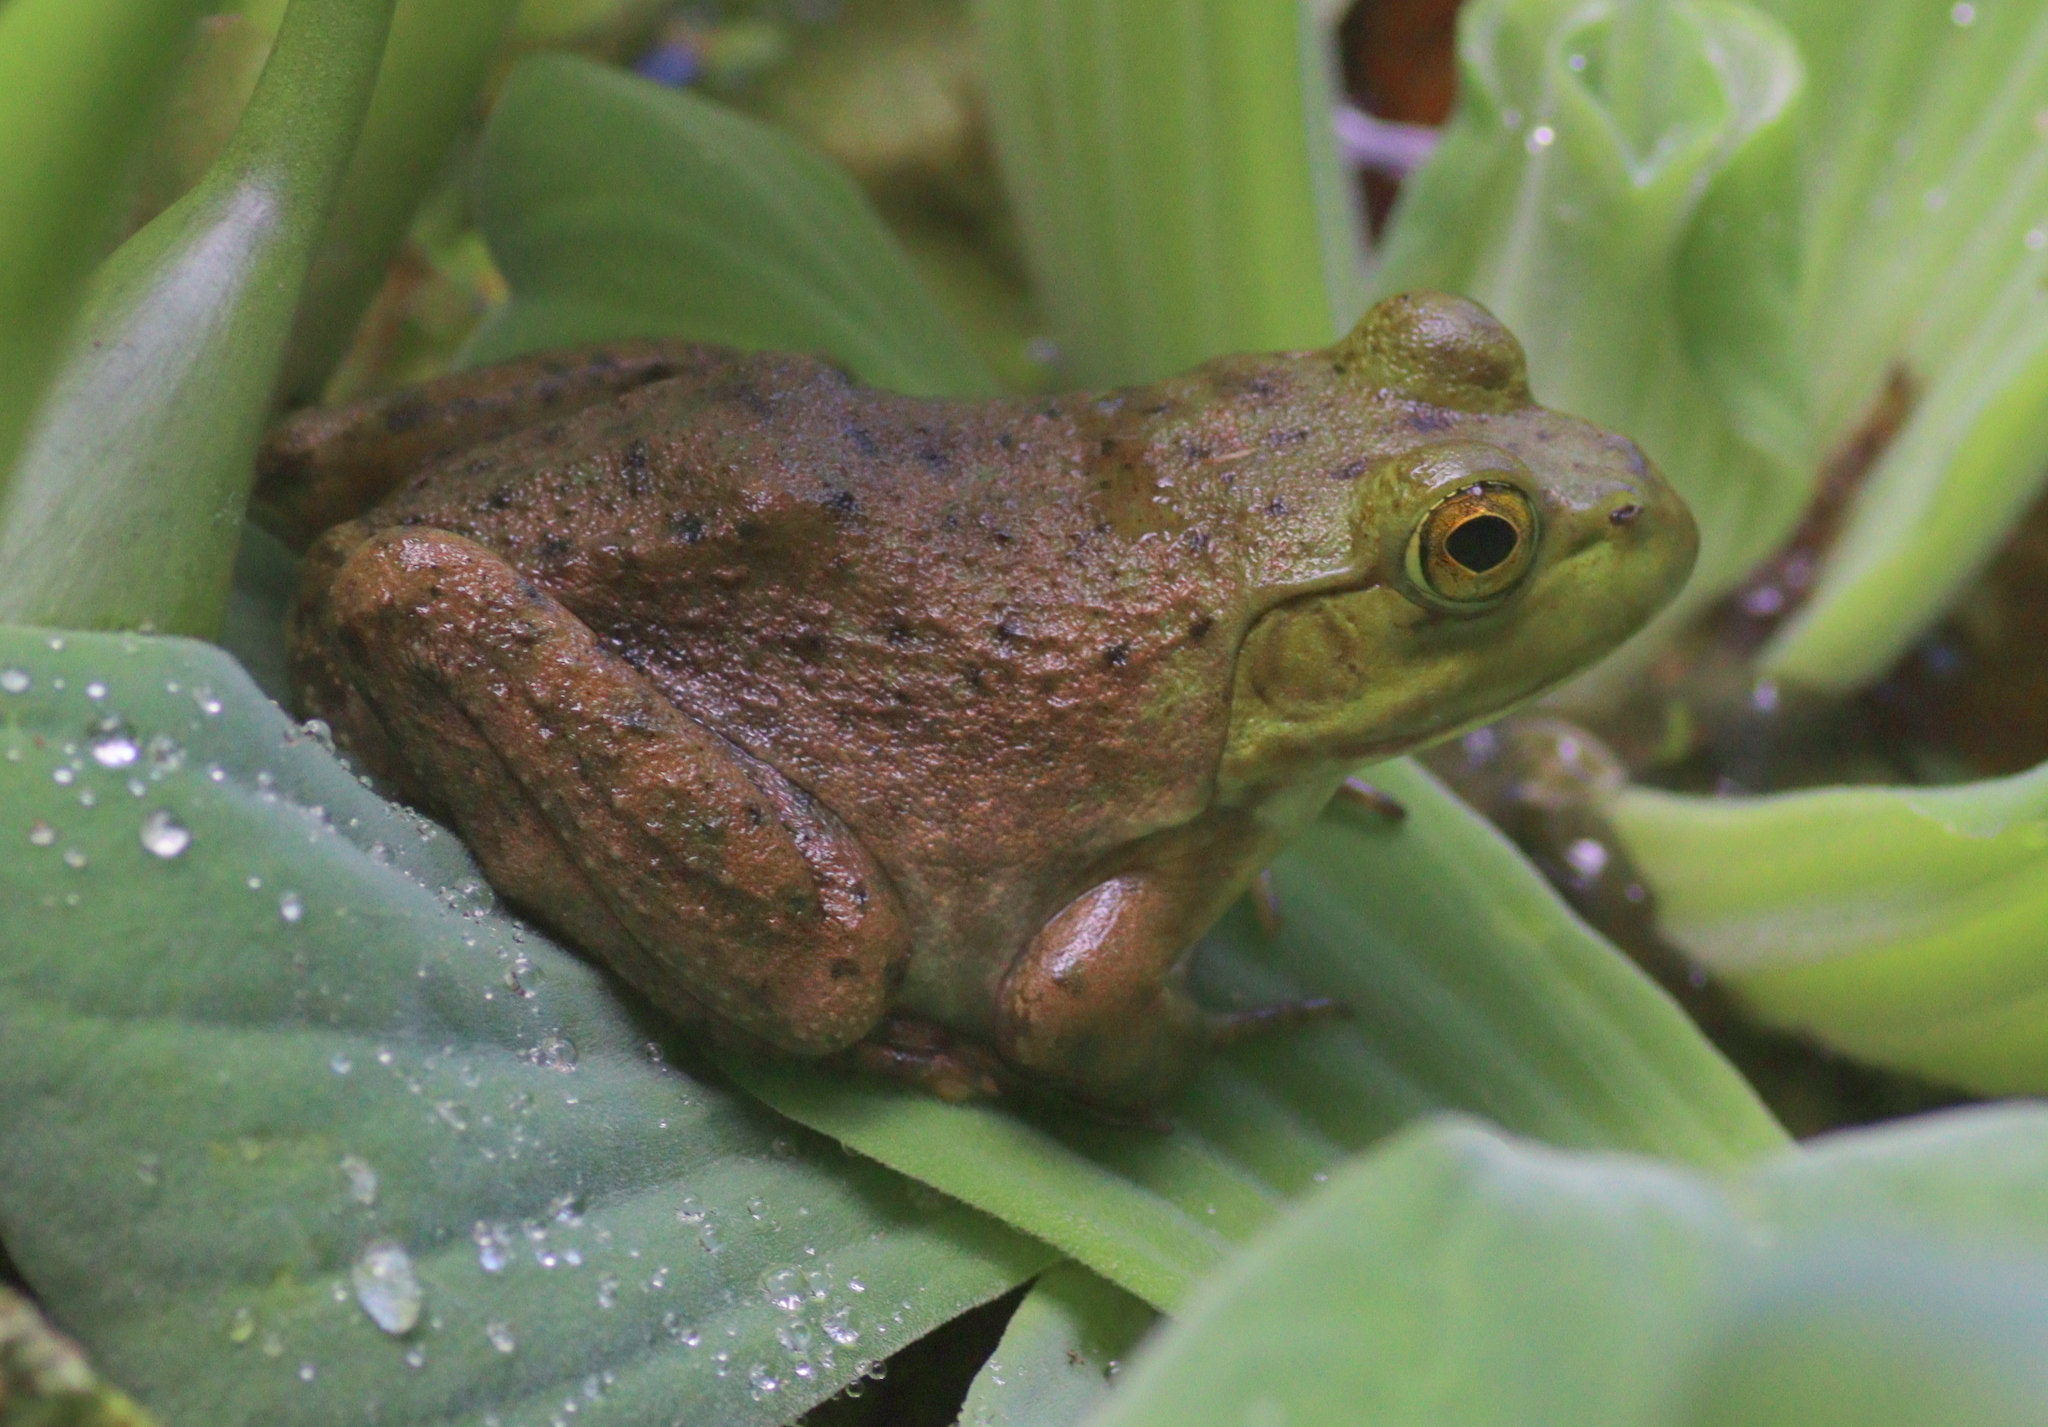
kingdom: Animalia
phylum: Chordata
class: Amphibia
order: Anura
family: Ranidae
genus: Lithobates
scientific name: Lithobates catesbeianus
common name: American bullfrog
